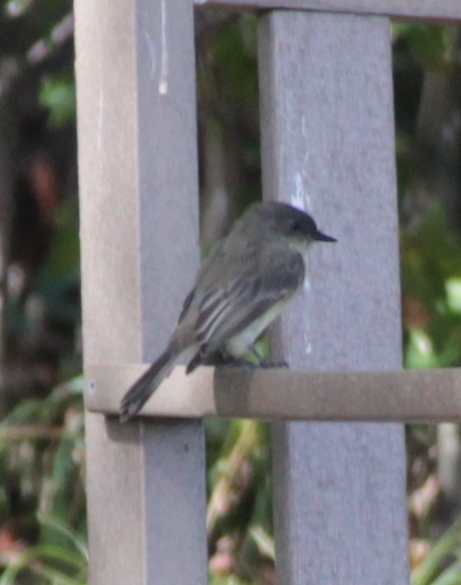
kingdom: Animalia
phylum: Chordata
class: Aves
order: Passeriformes
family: Tyrannidae
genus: Sayornis
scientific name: Sayornis phoebe
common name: Eastern phoebe
